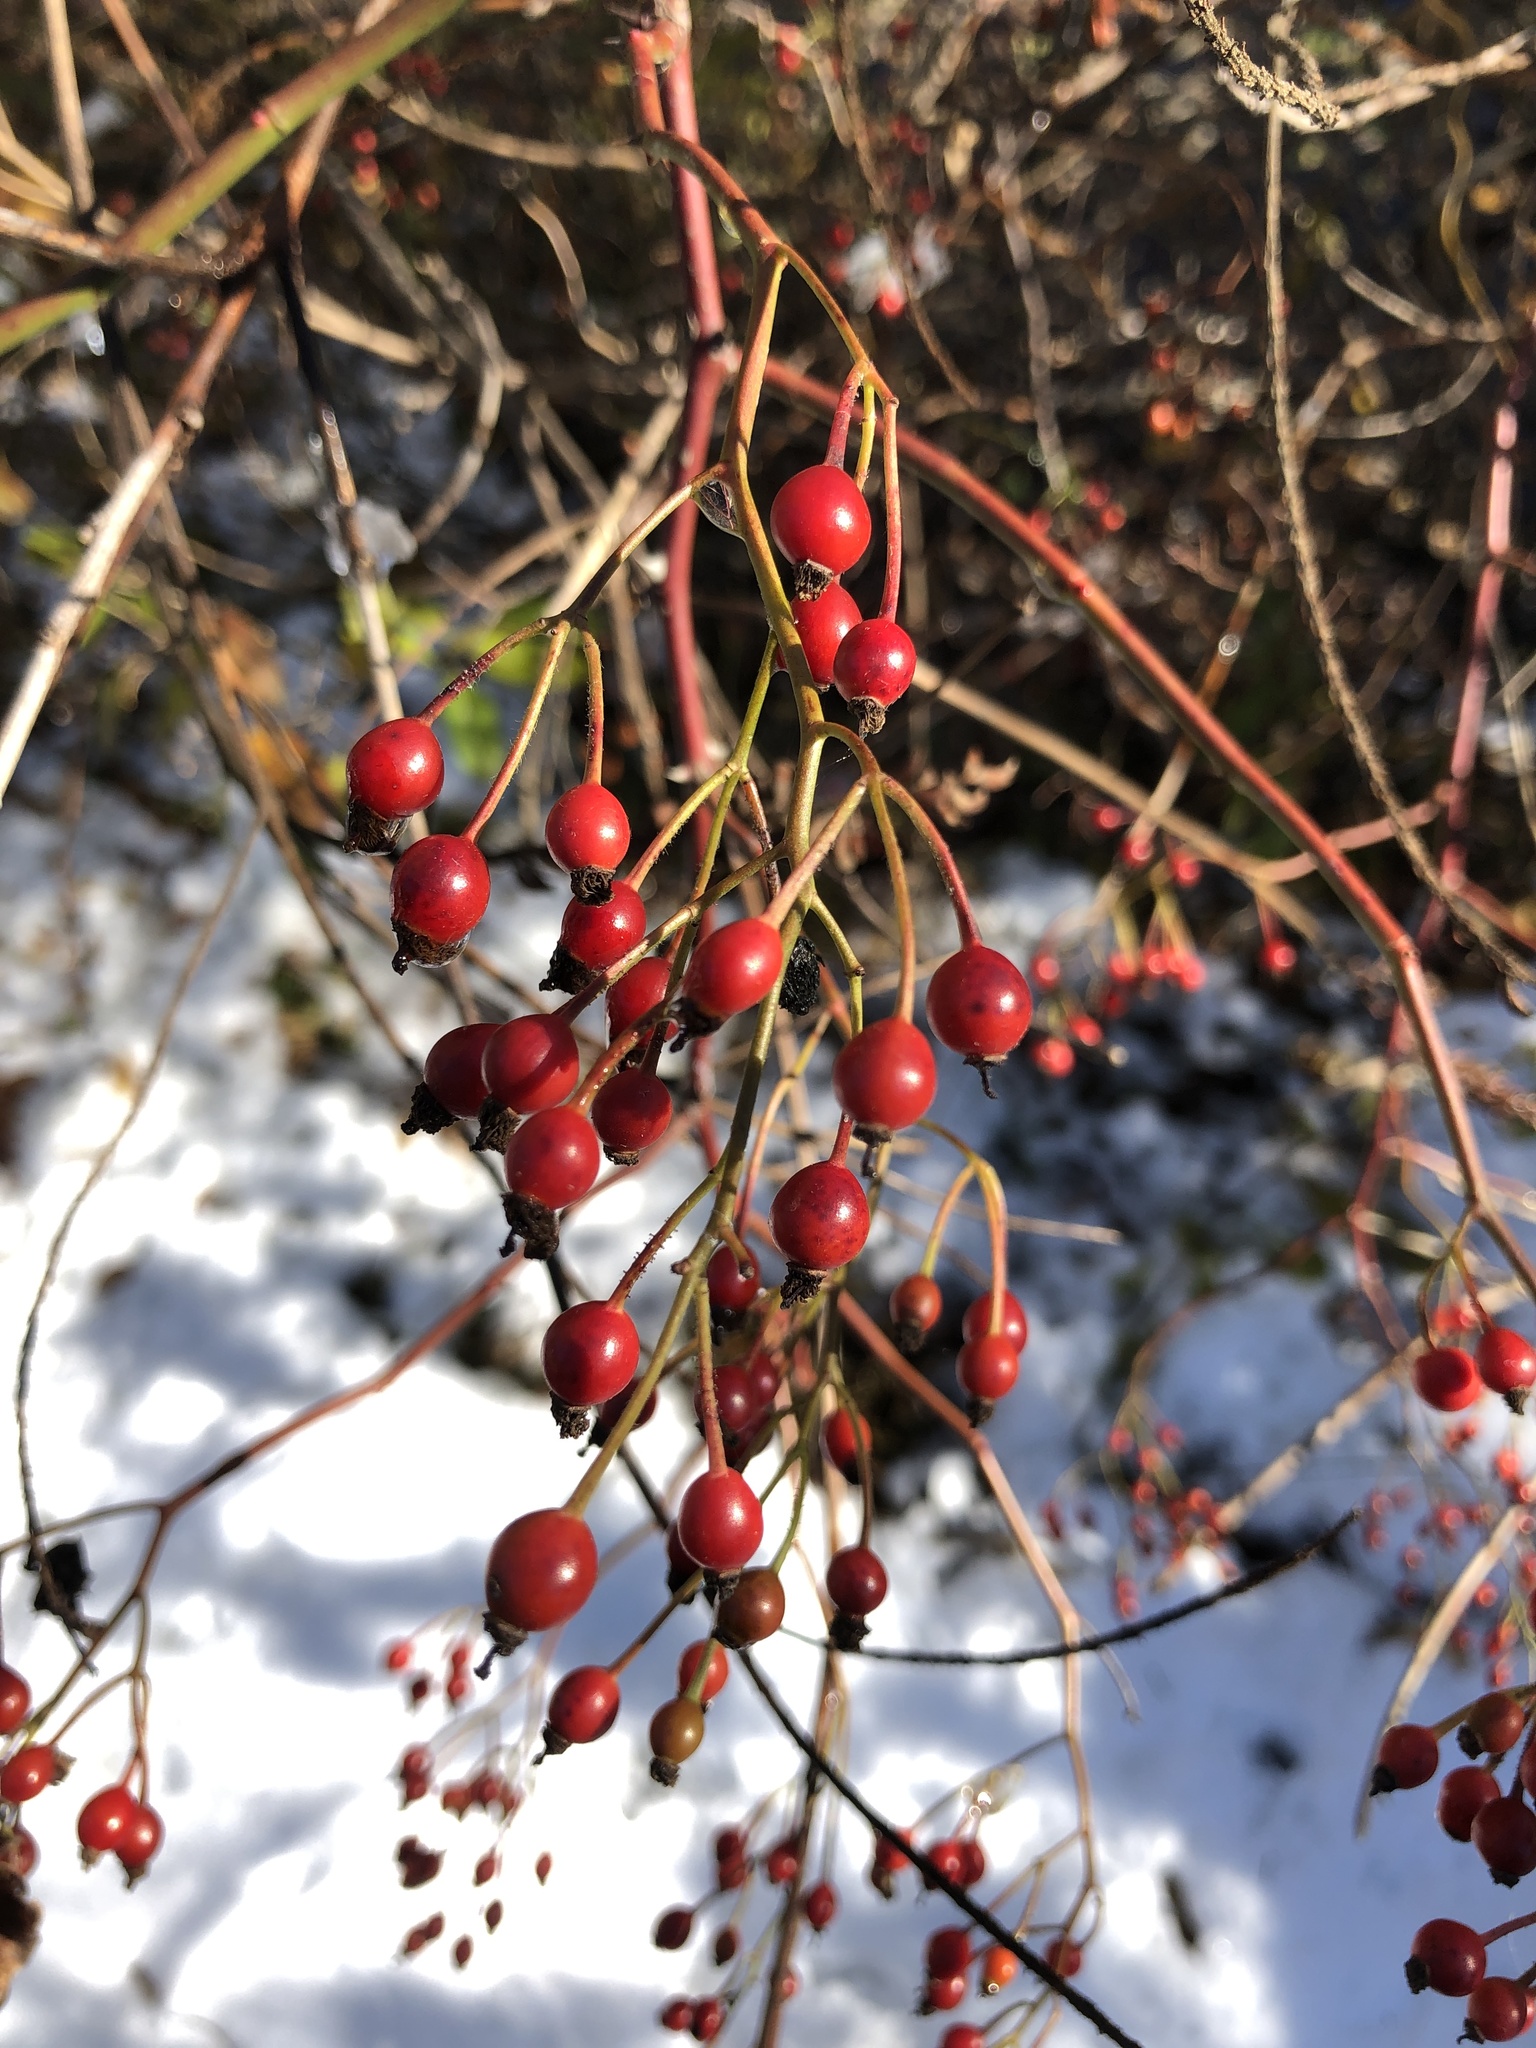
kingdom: Plantae
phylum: Tracheophyta
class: Magnoliopsida
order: Rosales
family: Rosaceae
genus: Rosa
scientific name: Rosa multiflora
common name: Multiflora rose
